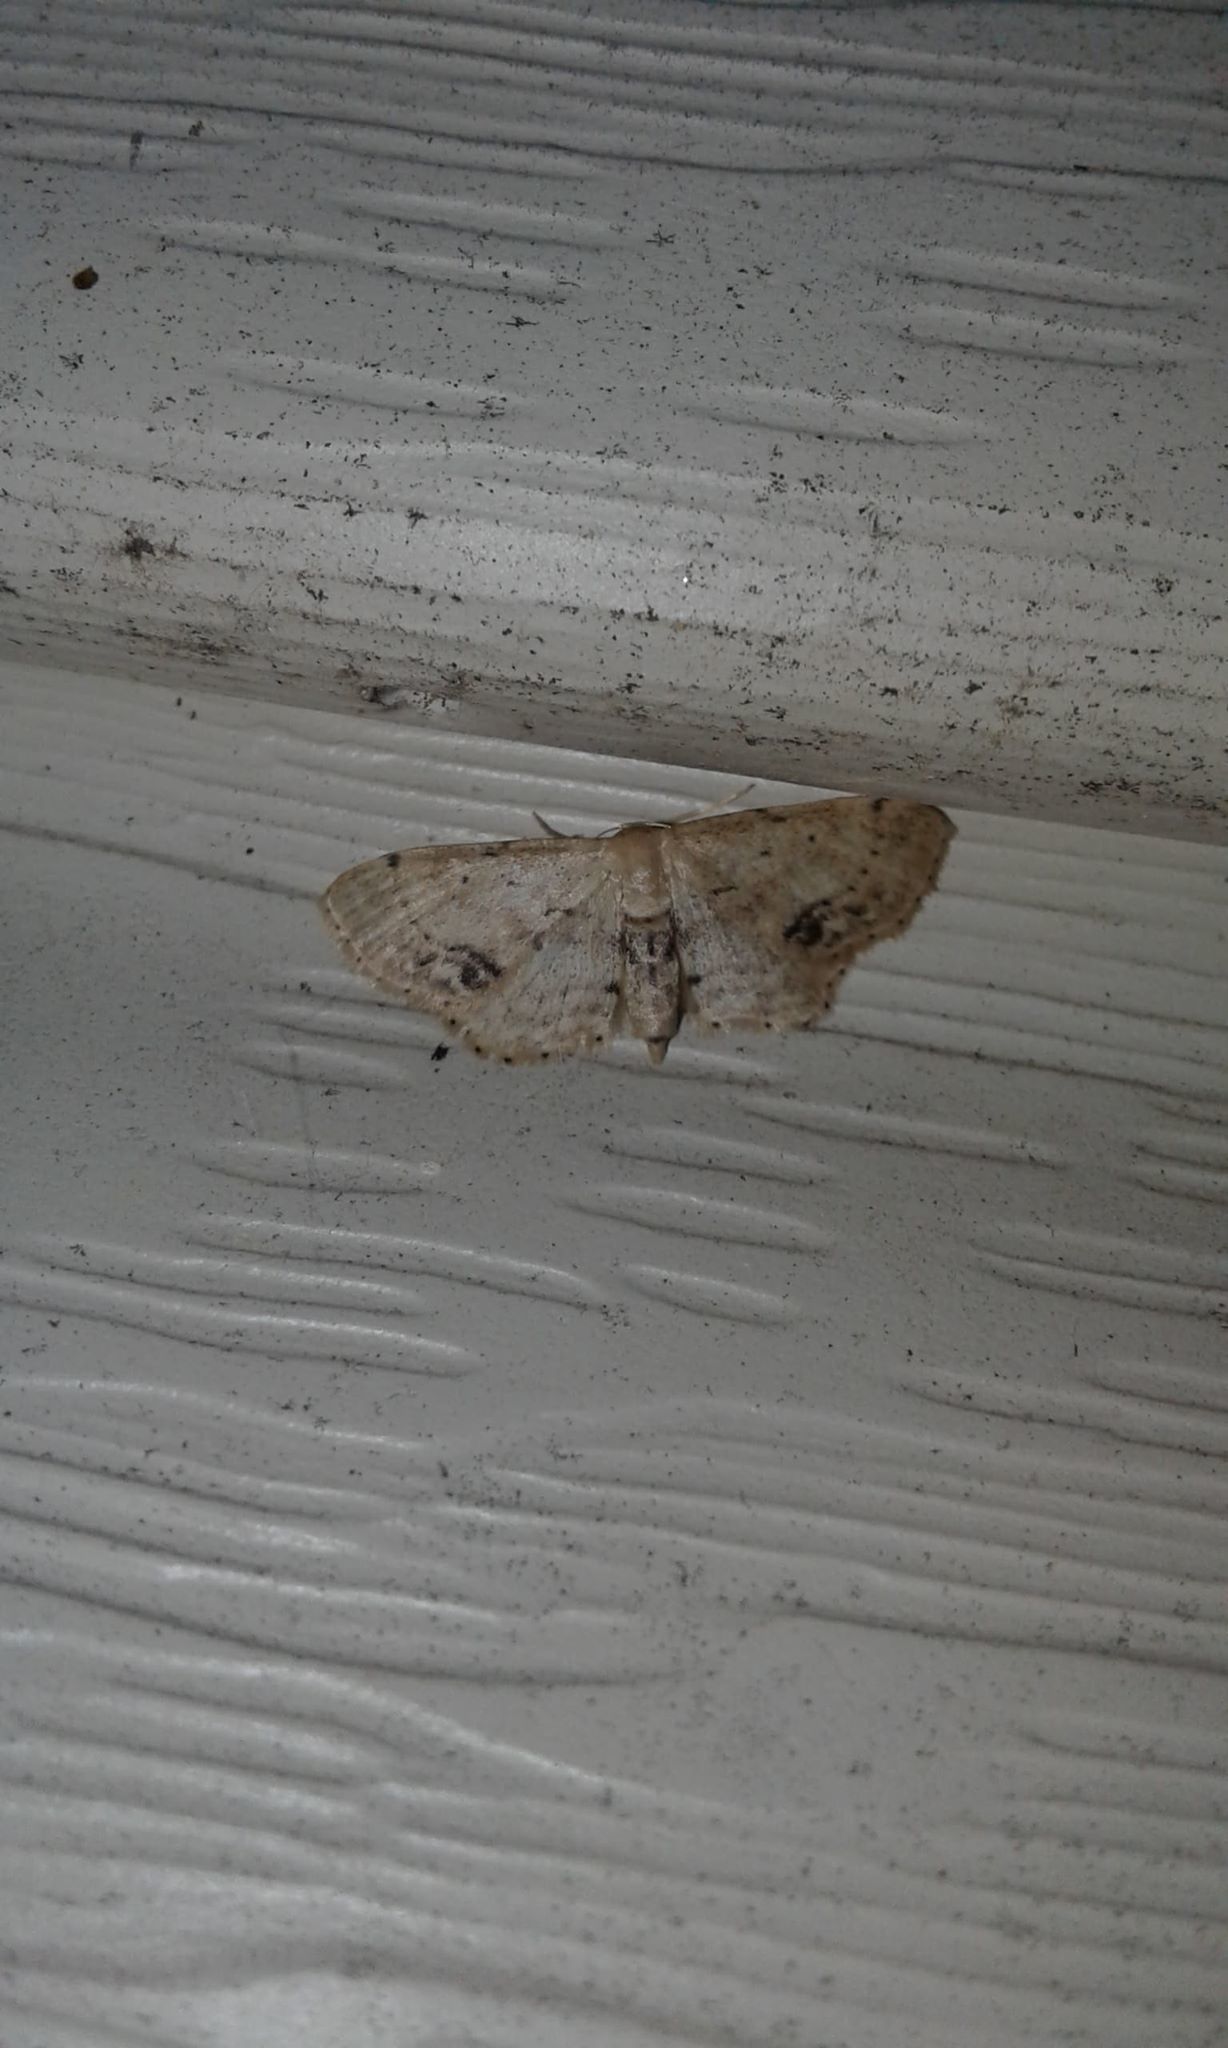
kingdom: Animalia
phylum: Arthropoda
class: Insecta
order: Lepidoptera
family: Geometridae
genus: Idaea
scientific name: Idaea dimidiata
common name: Single-dotted wave
